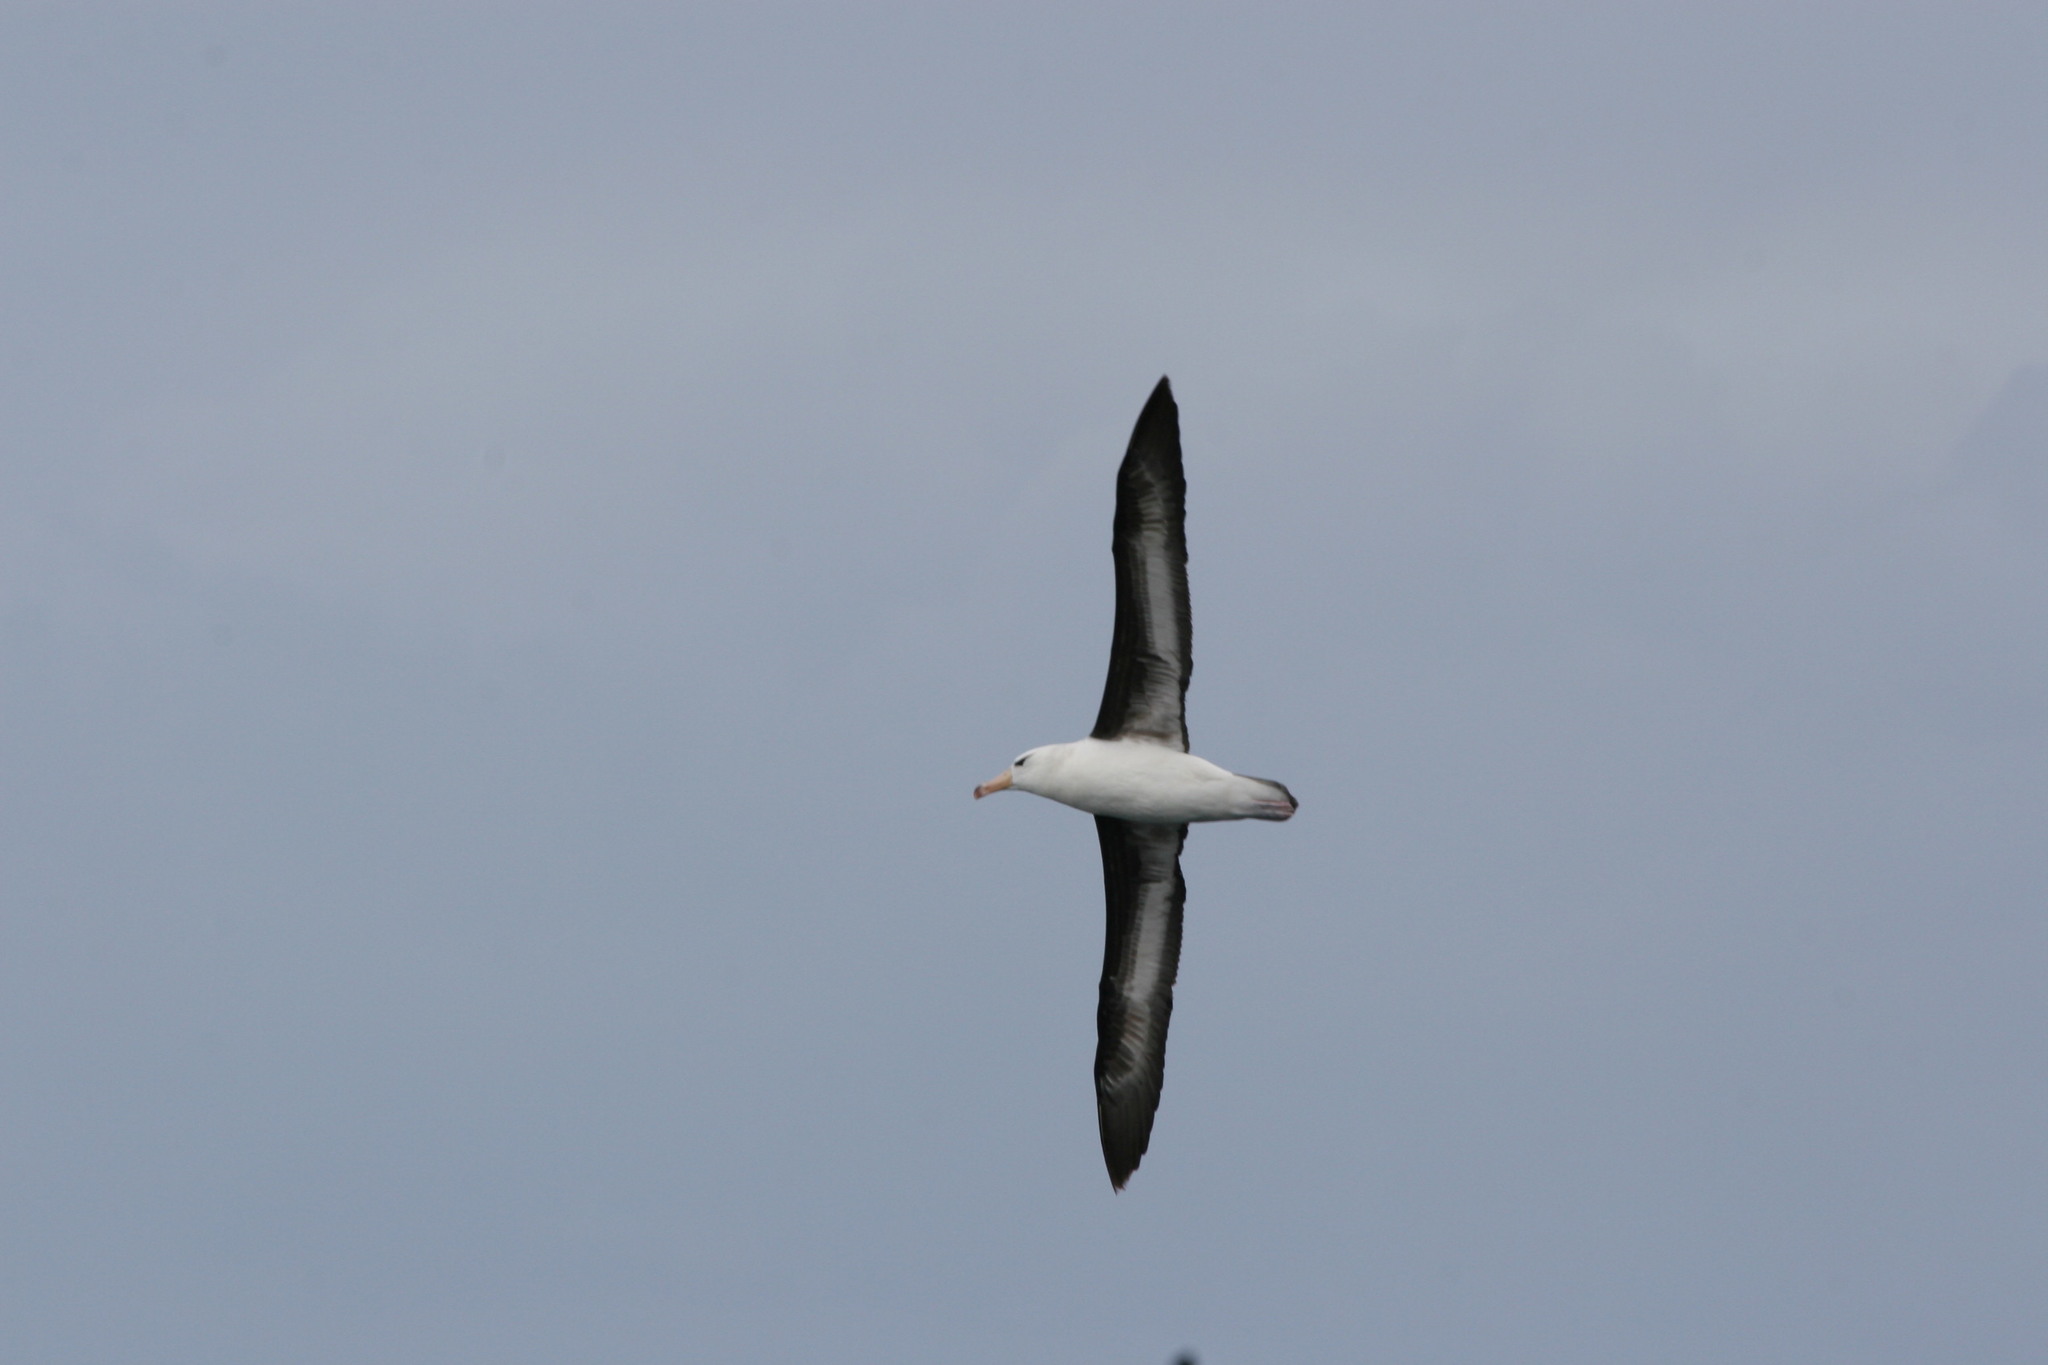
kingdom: Animalia
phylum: Chordata
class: Aves
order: Procellariiformes
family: Diomedeidae
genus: Thalassarche
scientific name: Thalassarche melanophris
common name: Black-browed albatross
